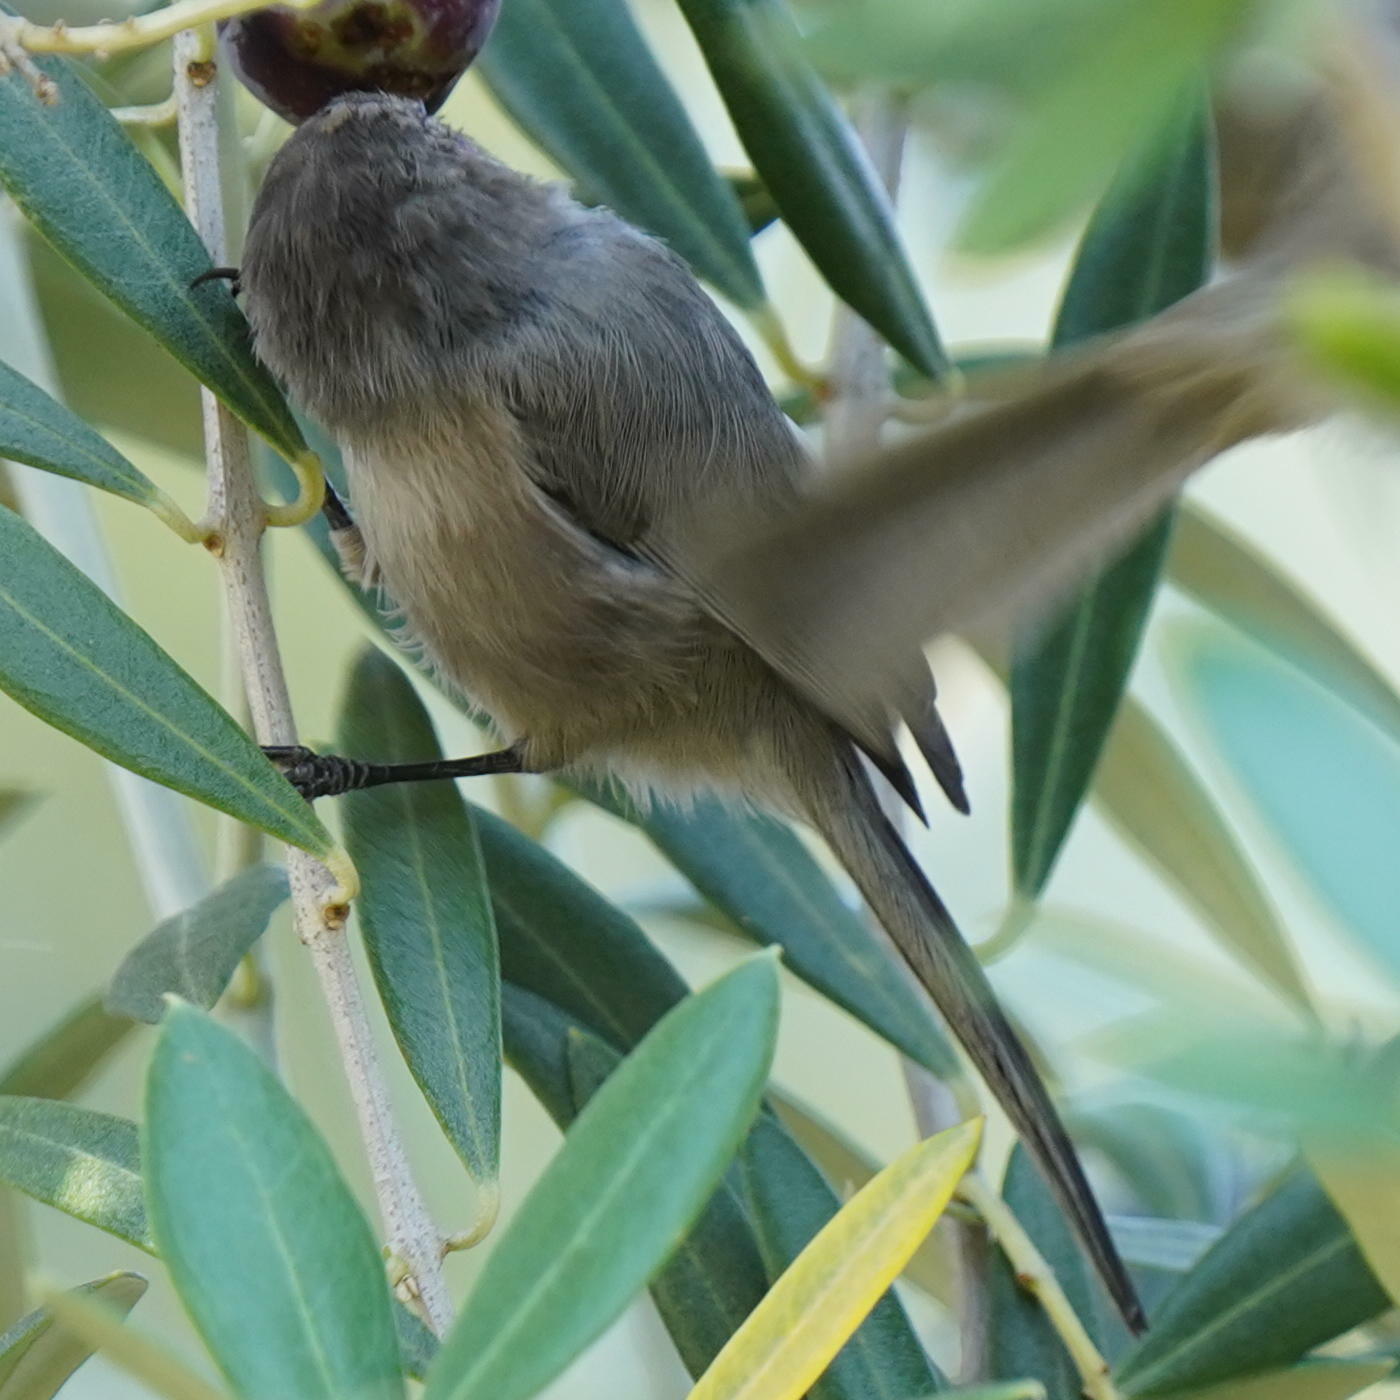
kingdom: Animalia
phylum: Chordata
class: Aves
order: Passeriformes
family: Aegithalidae
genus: Psaltriparus
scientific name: Psaltriparus minimus
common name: American bushtit
